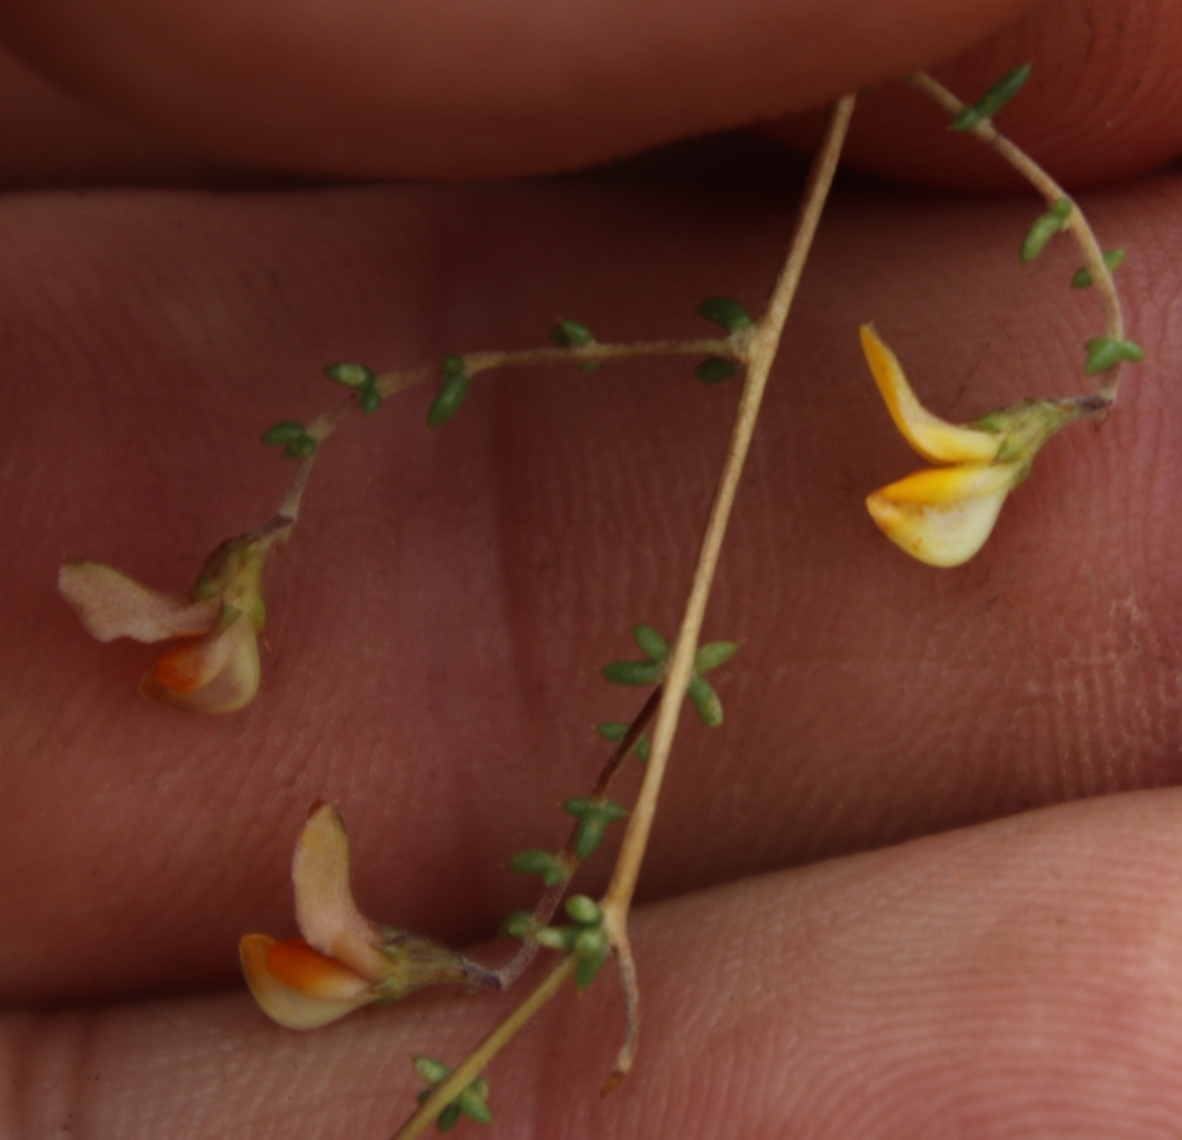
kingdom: Plantae
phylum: Tracheophyta
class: Magnoliopsida
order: Fabales
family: Fabaceae
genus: Aspalathus
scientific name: Aspalathus divaricata
